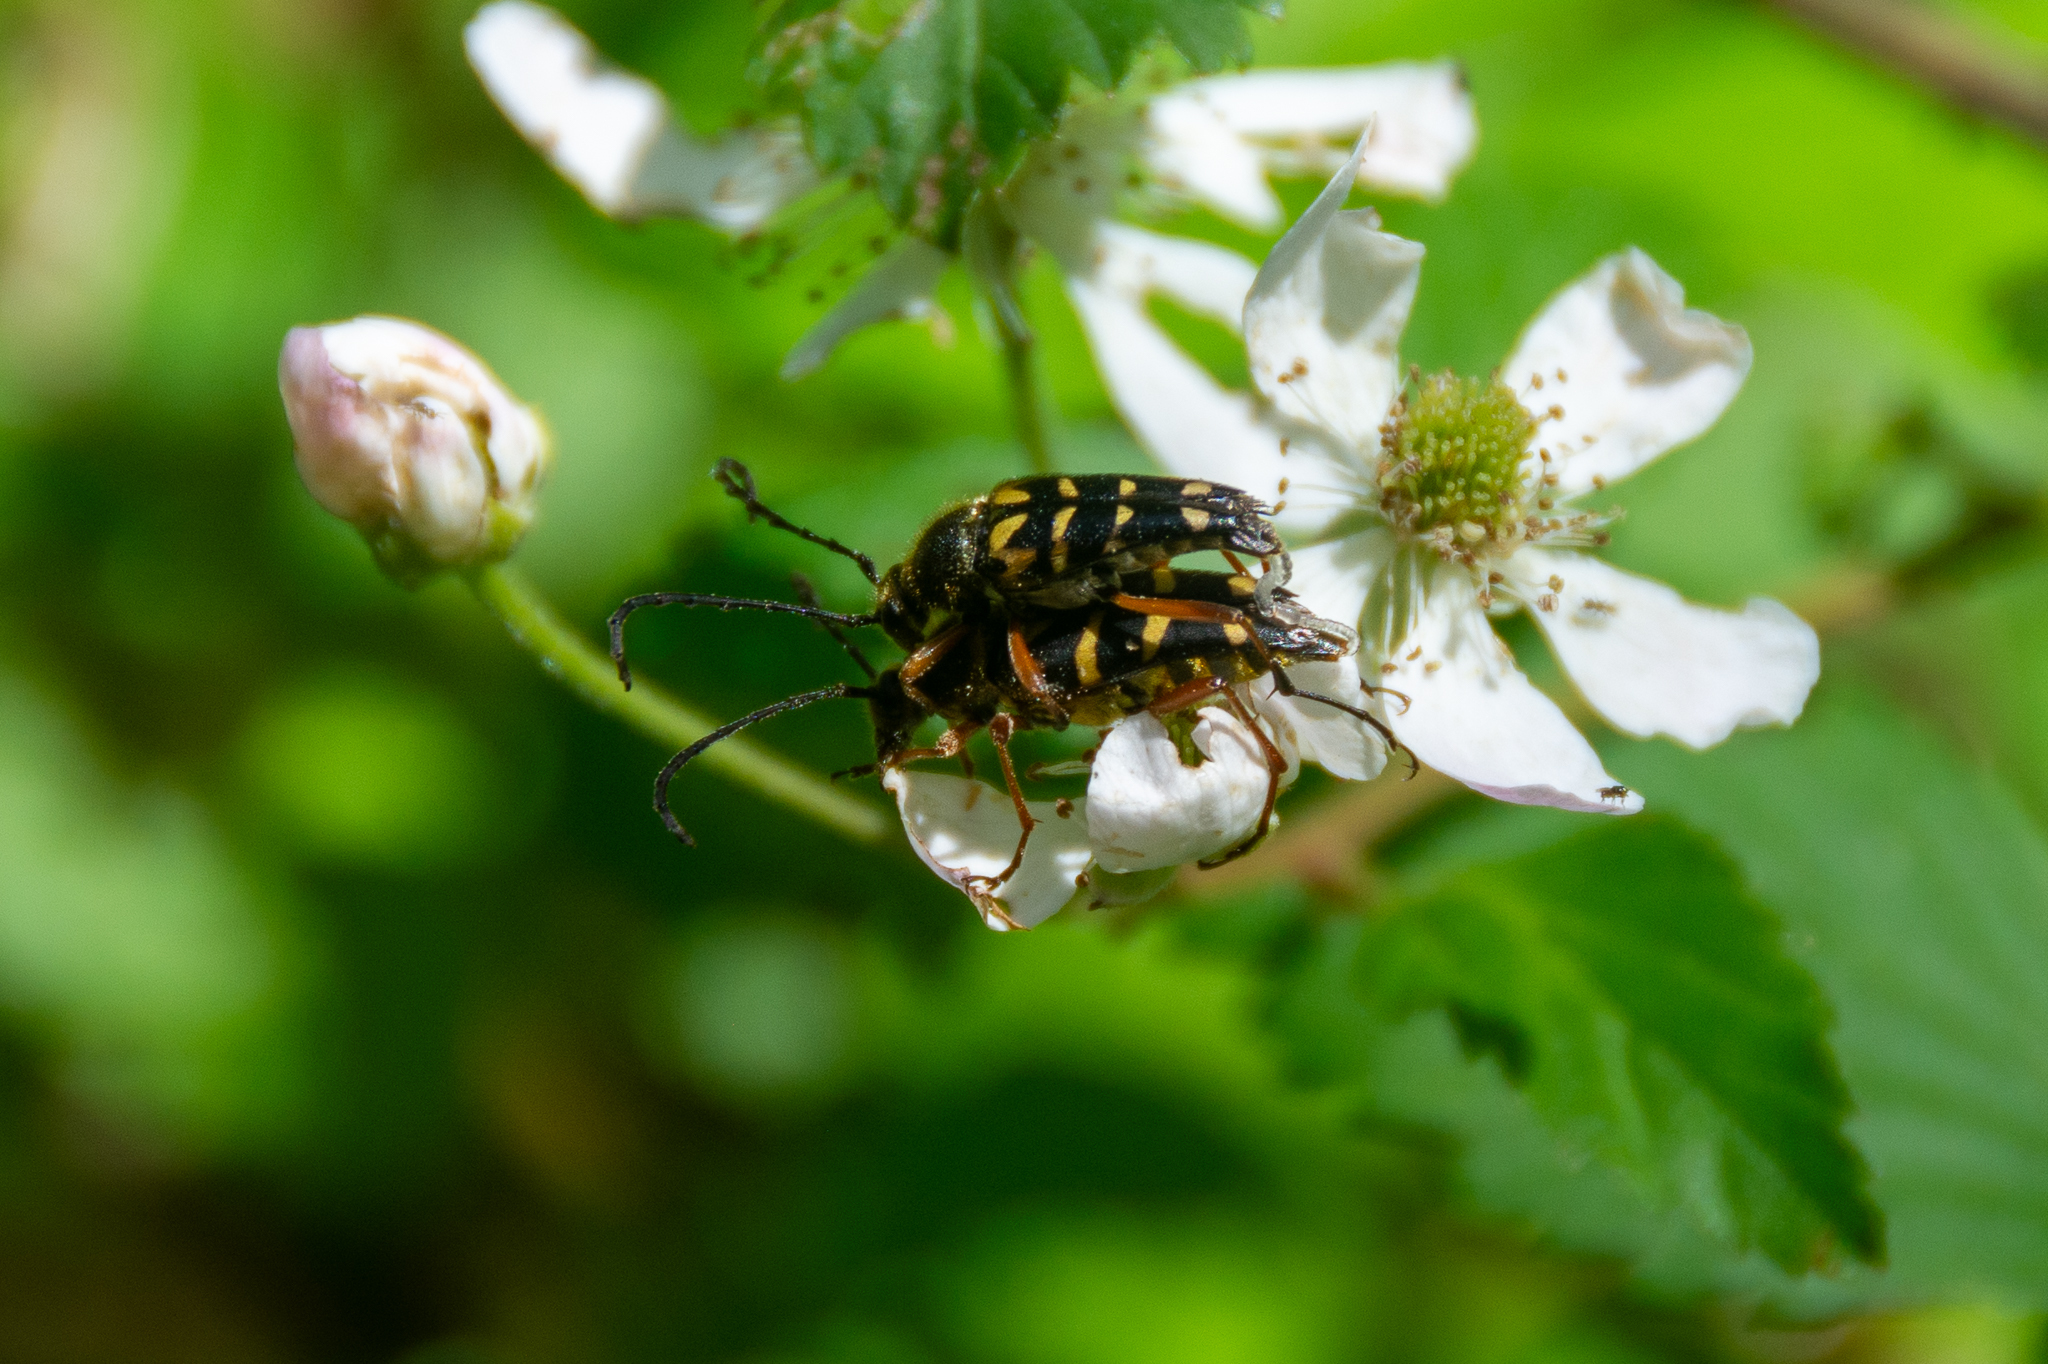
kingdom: Animalia
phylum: Arthropoda
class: Insecta
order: Coleoptera
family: Cerambycidae
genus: Typocerus
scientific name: Typocerus zebra
